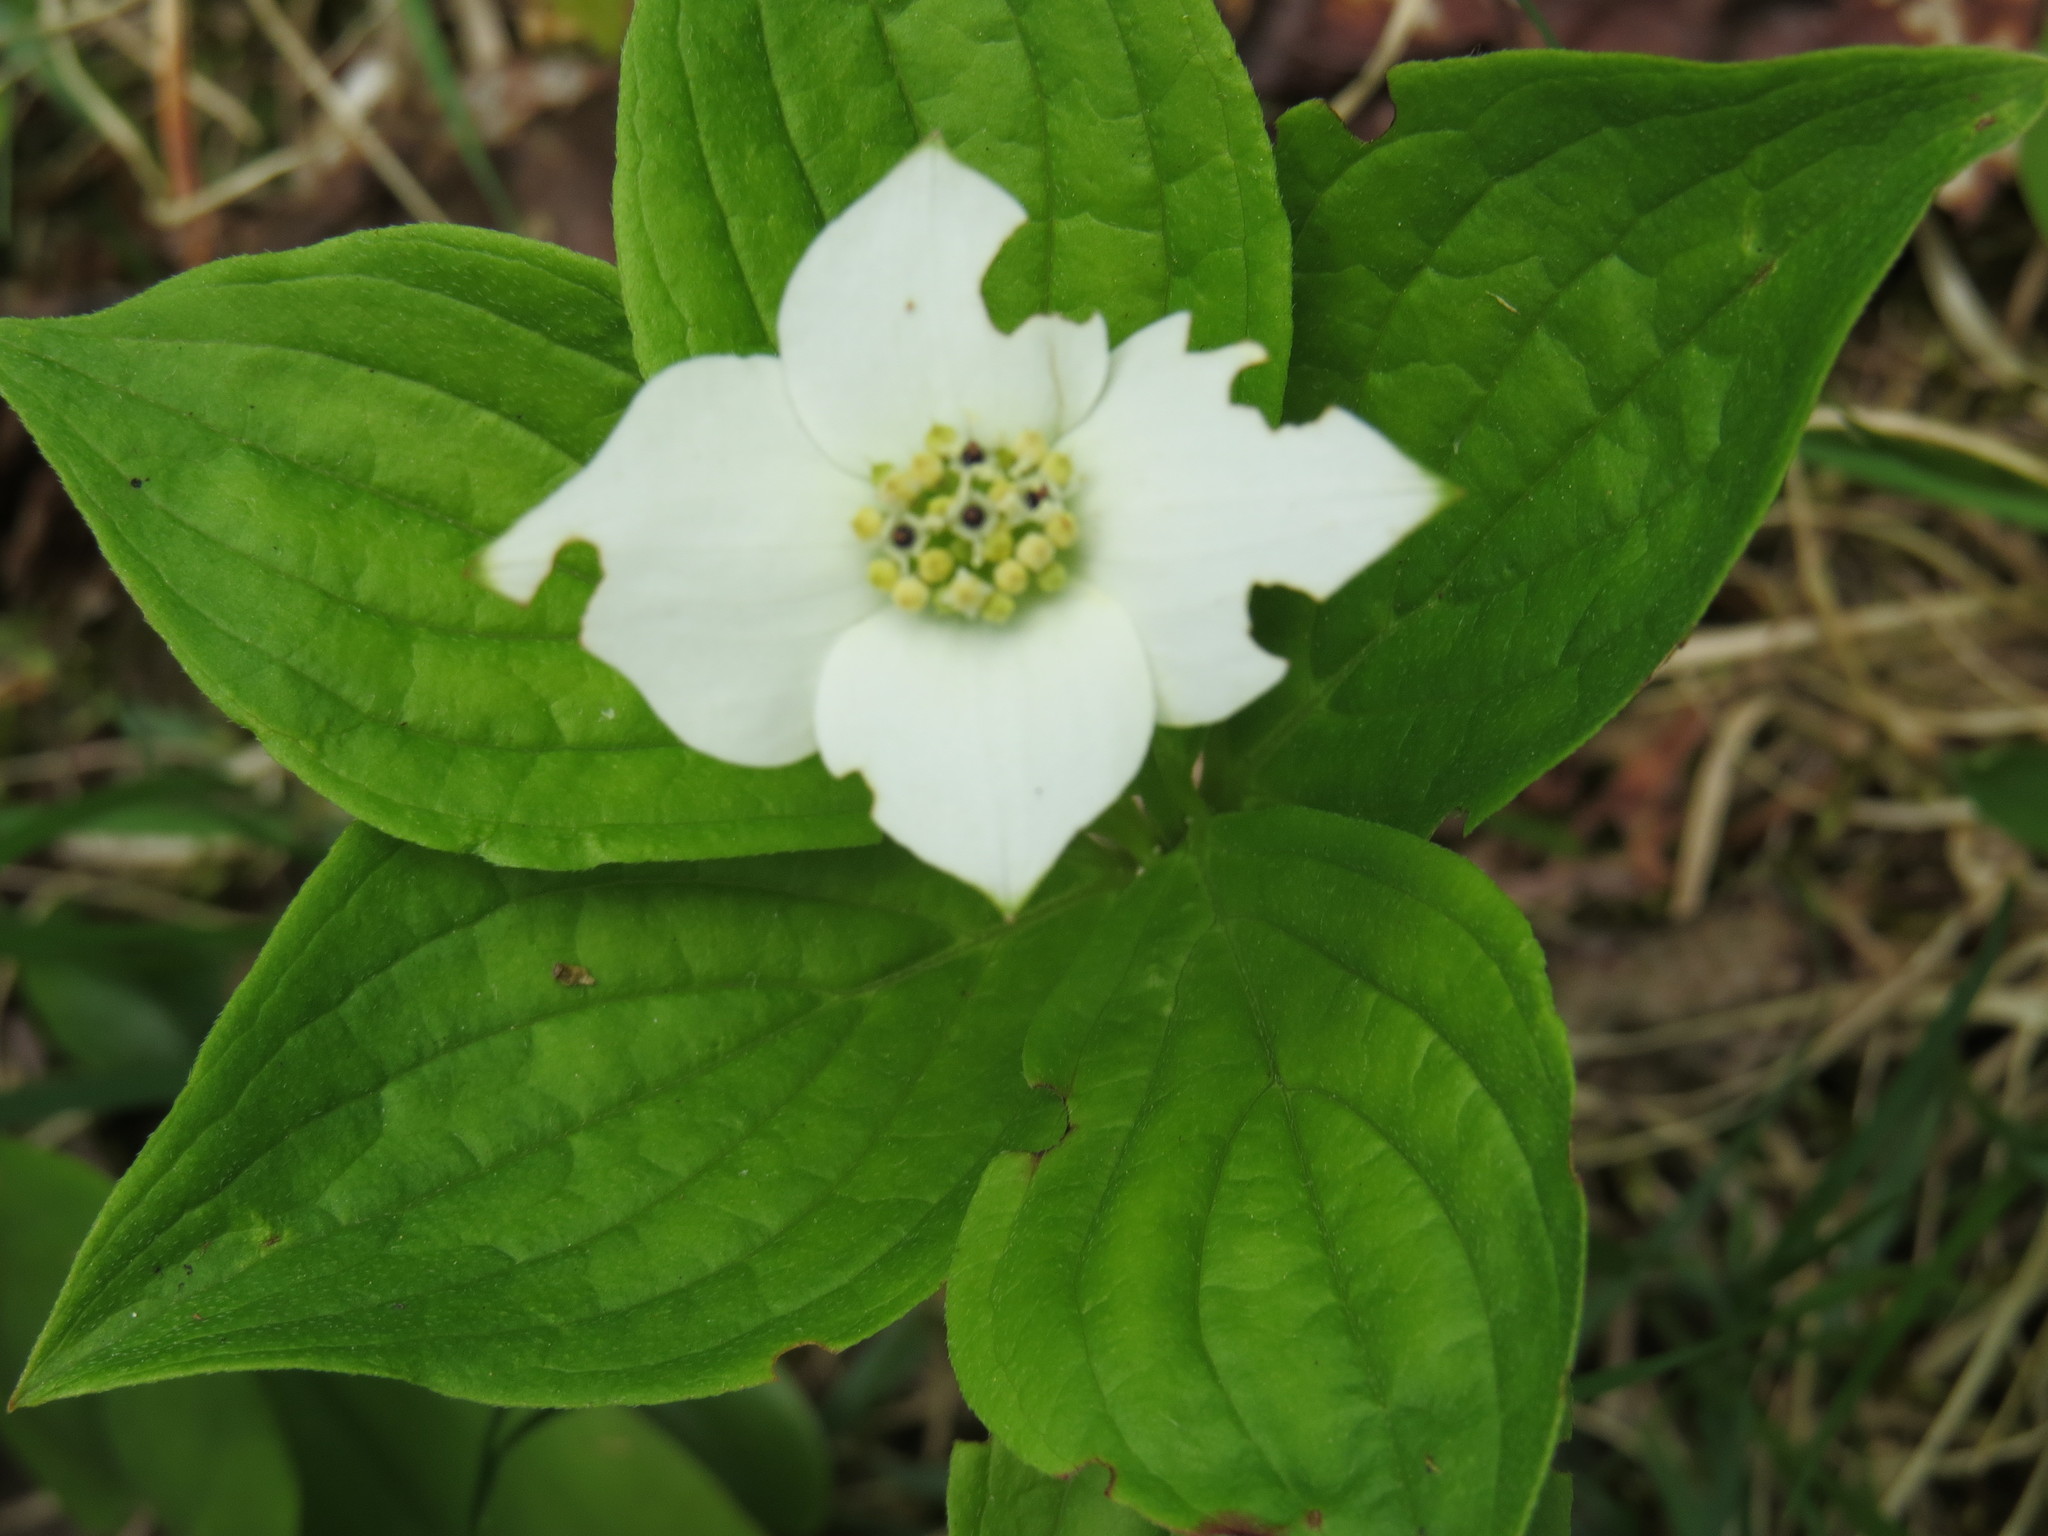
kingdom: Plantae
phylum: Tracheophyta
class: Magnoliopsida
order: Cornales
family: Cornaceae
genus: Cornus
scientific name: Cornus canadensis
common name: Creeping dogwood
